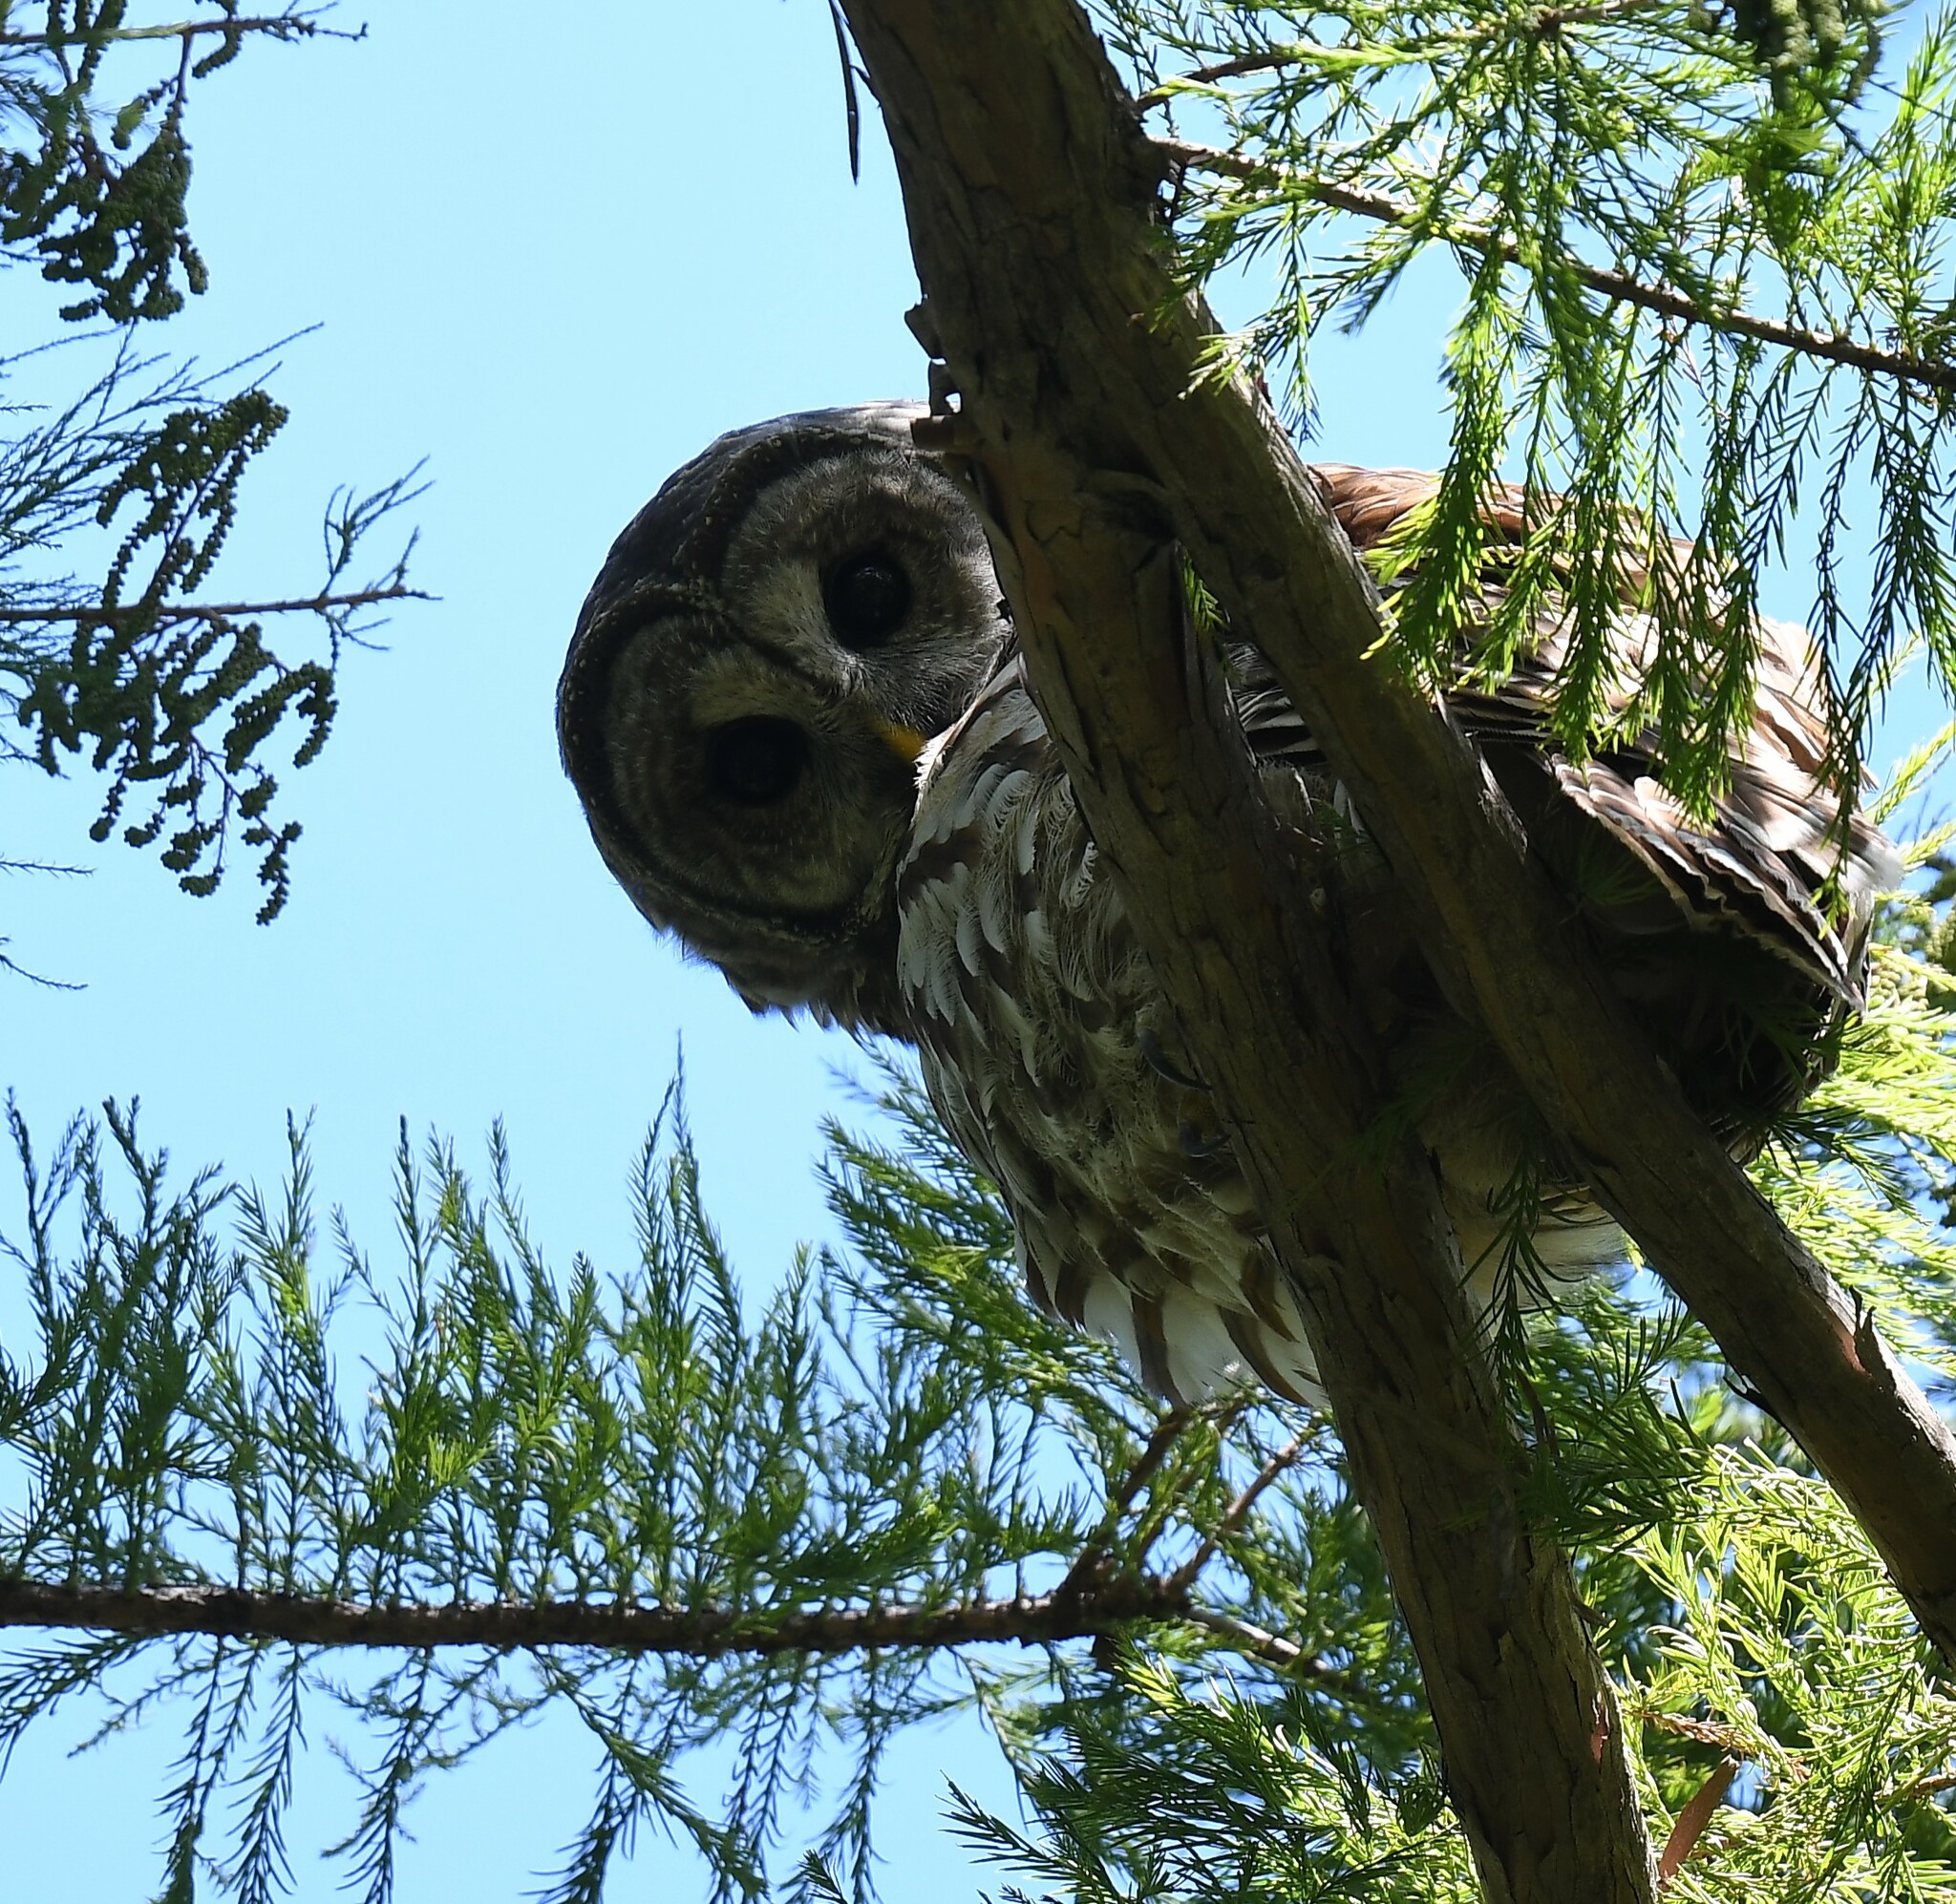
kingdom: Animalia
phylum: Chordata
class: Aves
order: Strigiformes
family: Strigidae
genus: Strix
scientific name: Strix varia
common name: Barred owl
